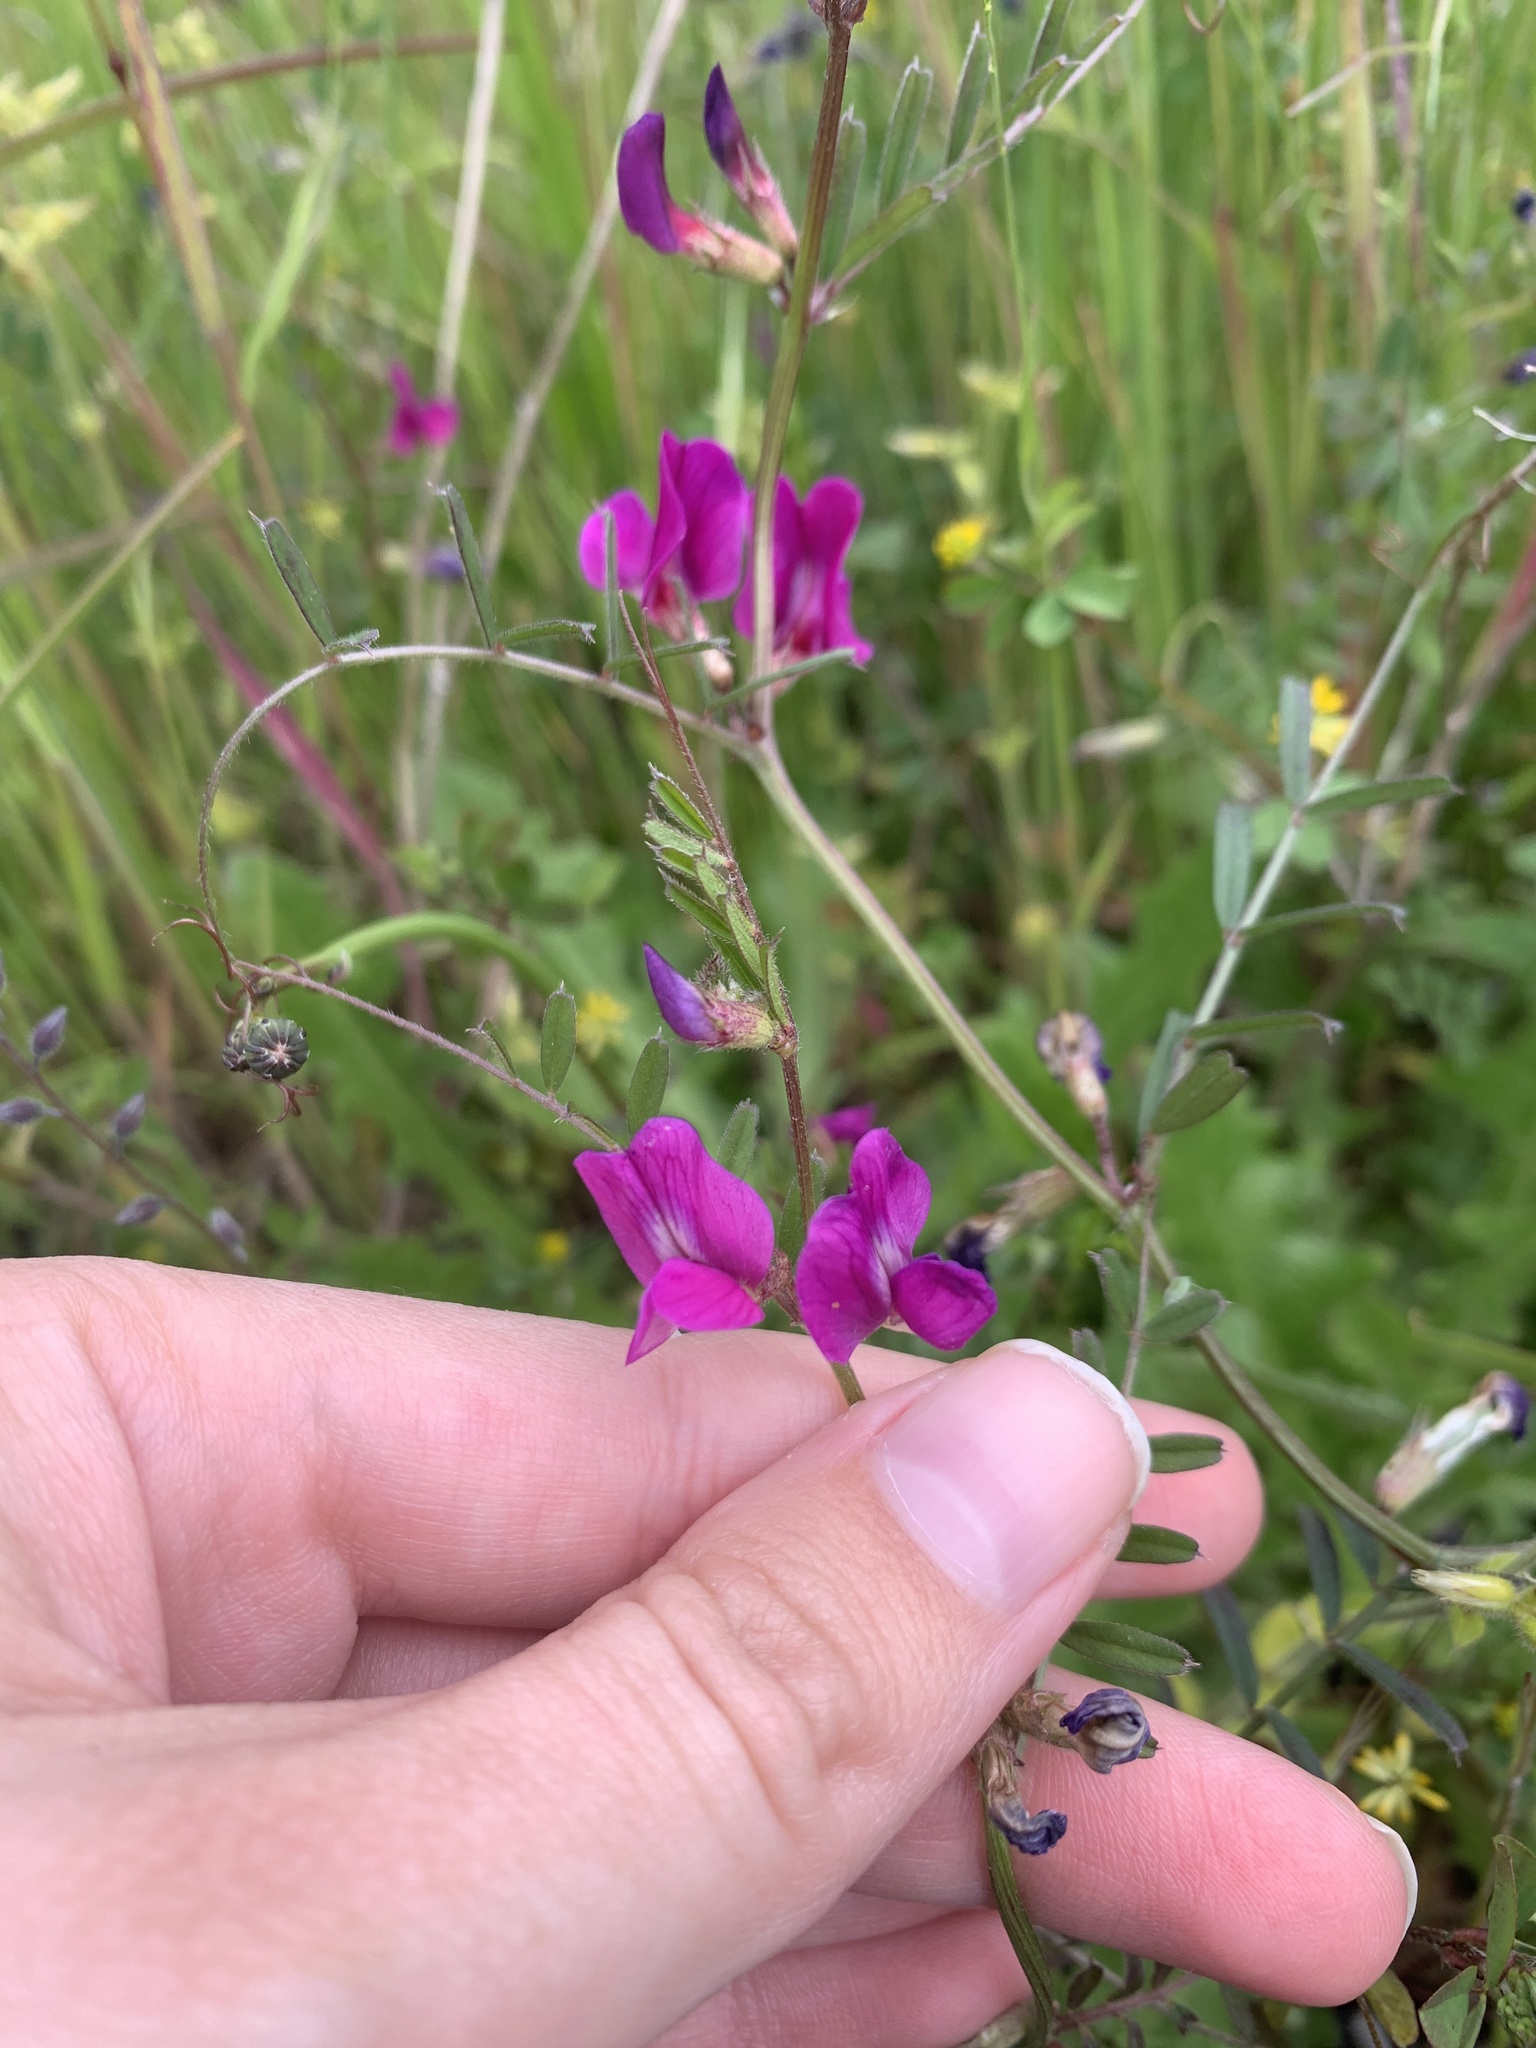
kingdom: Plantae
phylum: Tracheophyta
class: Magnoliopsida
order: Fabales
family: Fabaceae
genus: Vicia
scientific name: Vicia sativa
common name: Garden vetch
